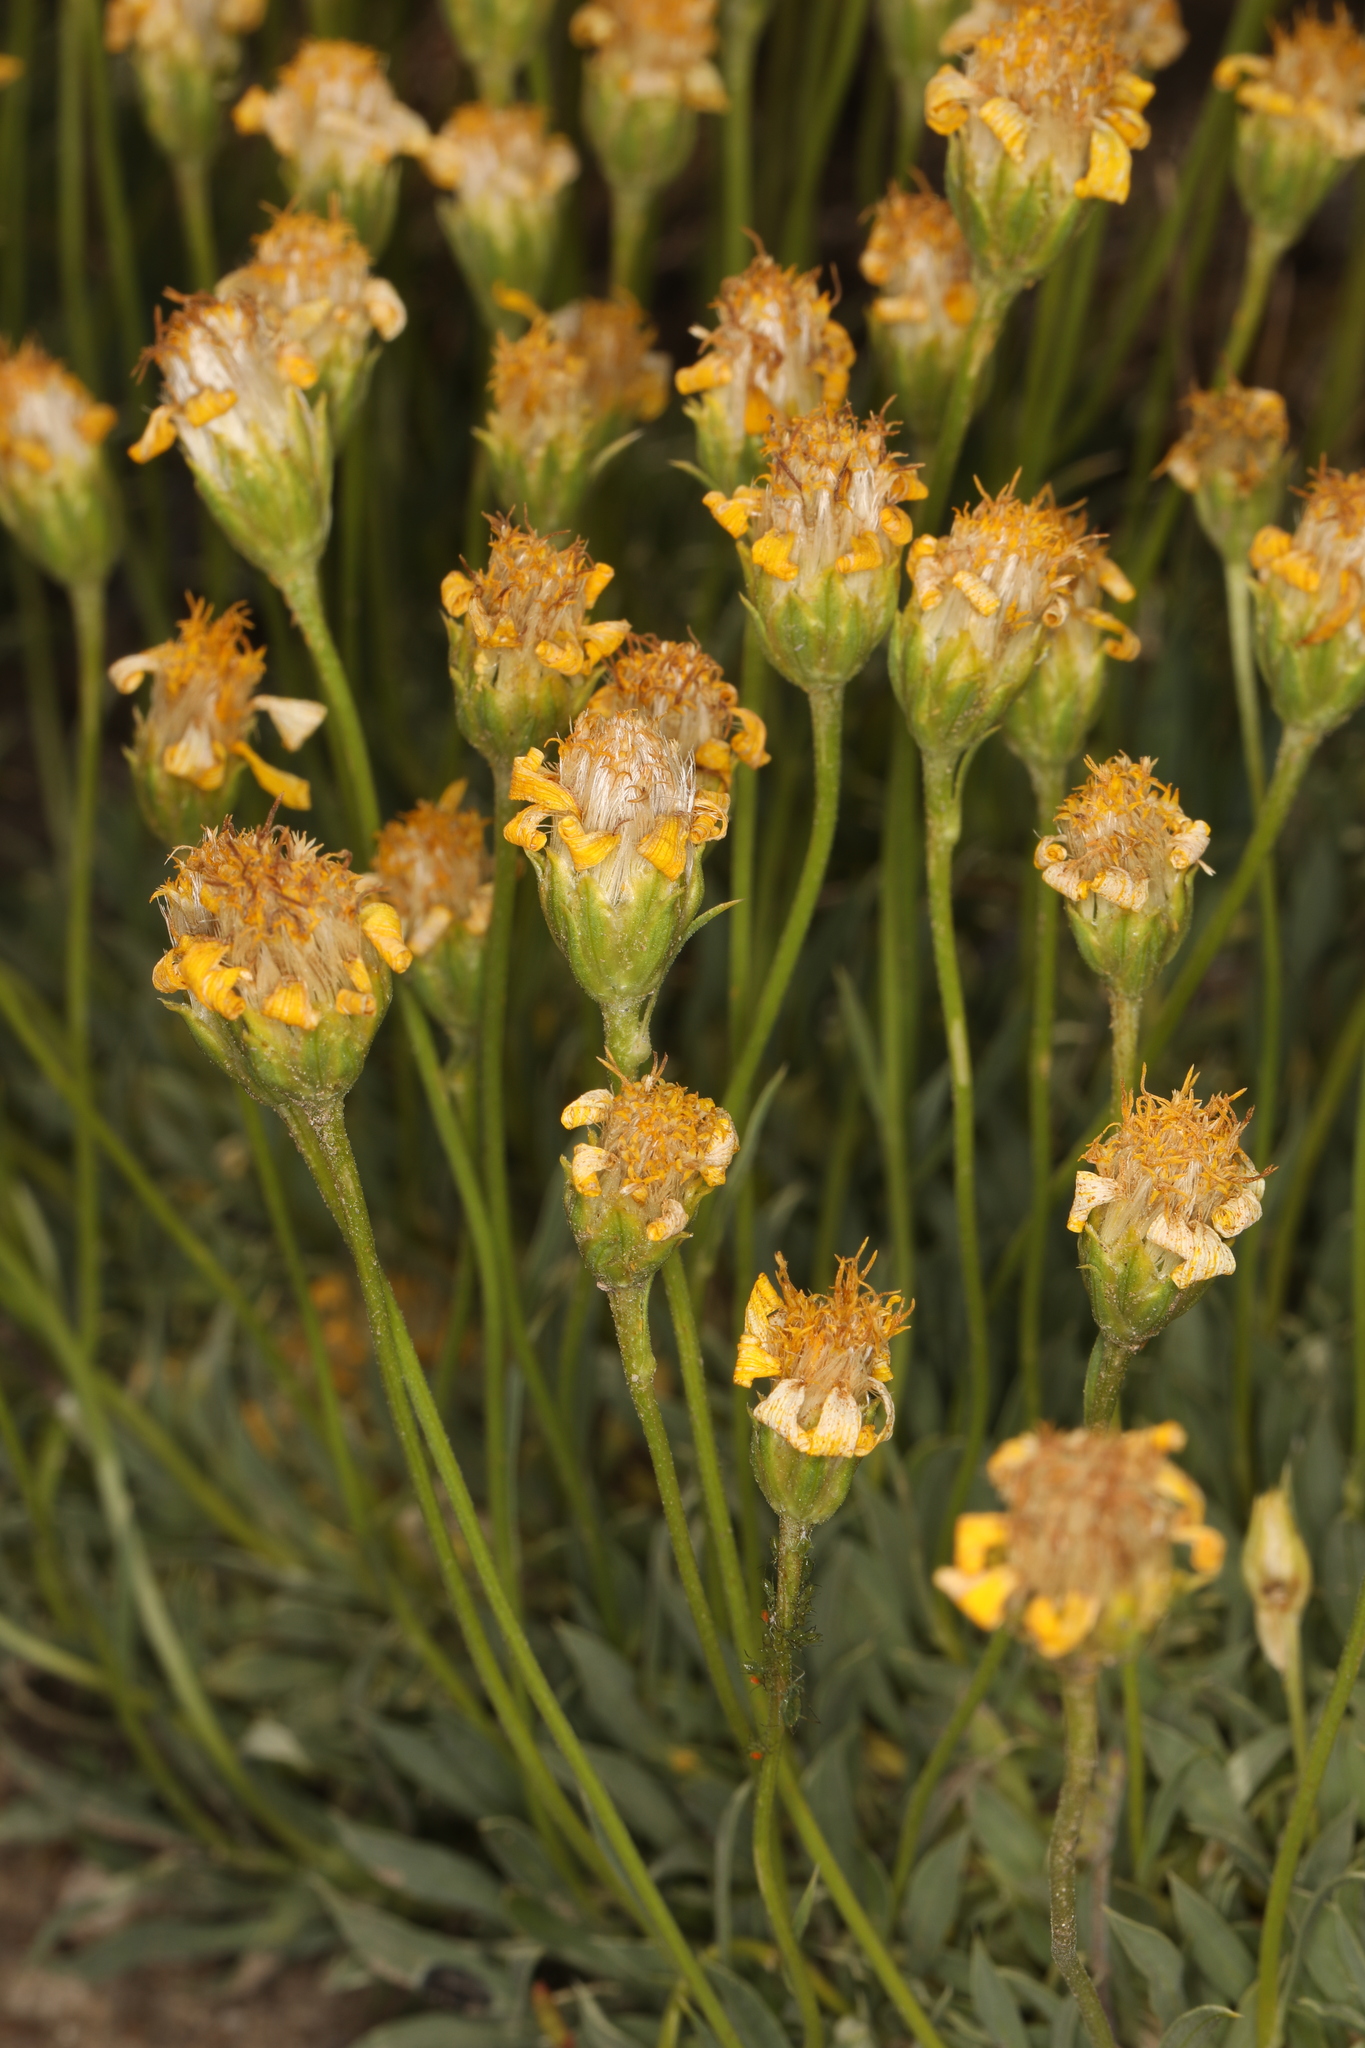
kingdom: Plantae
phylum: Tracheophyta
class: Magnoliopsida
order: Asterales
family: Asteraceae
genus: Stenotus
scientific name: Stenotus acaulis
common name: Stemless goldenweed
